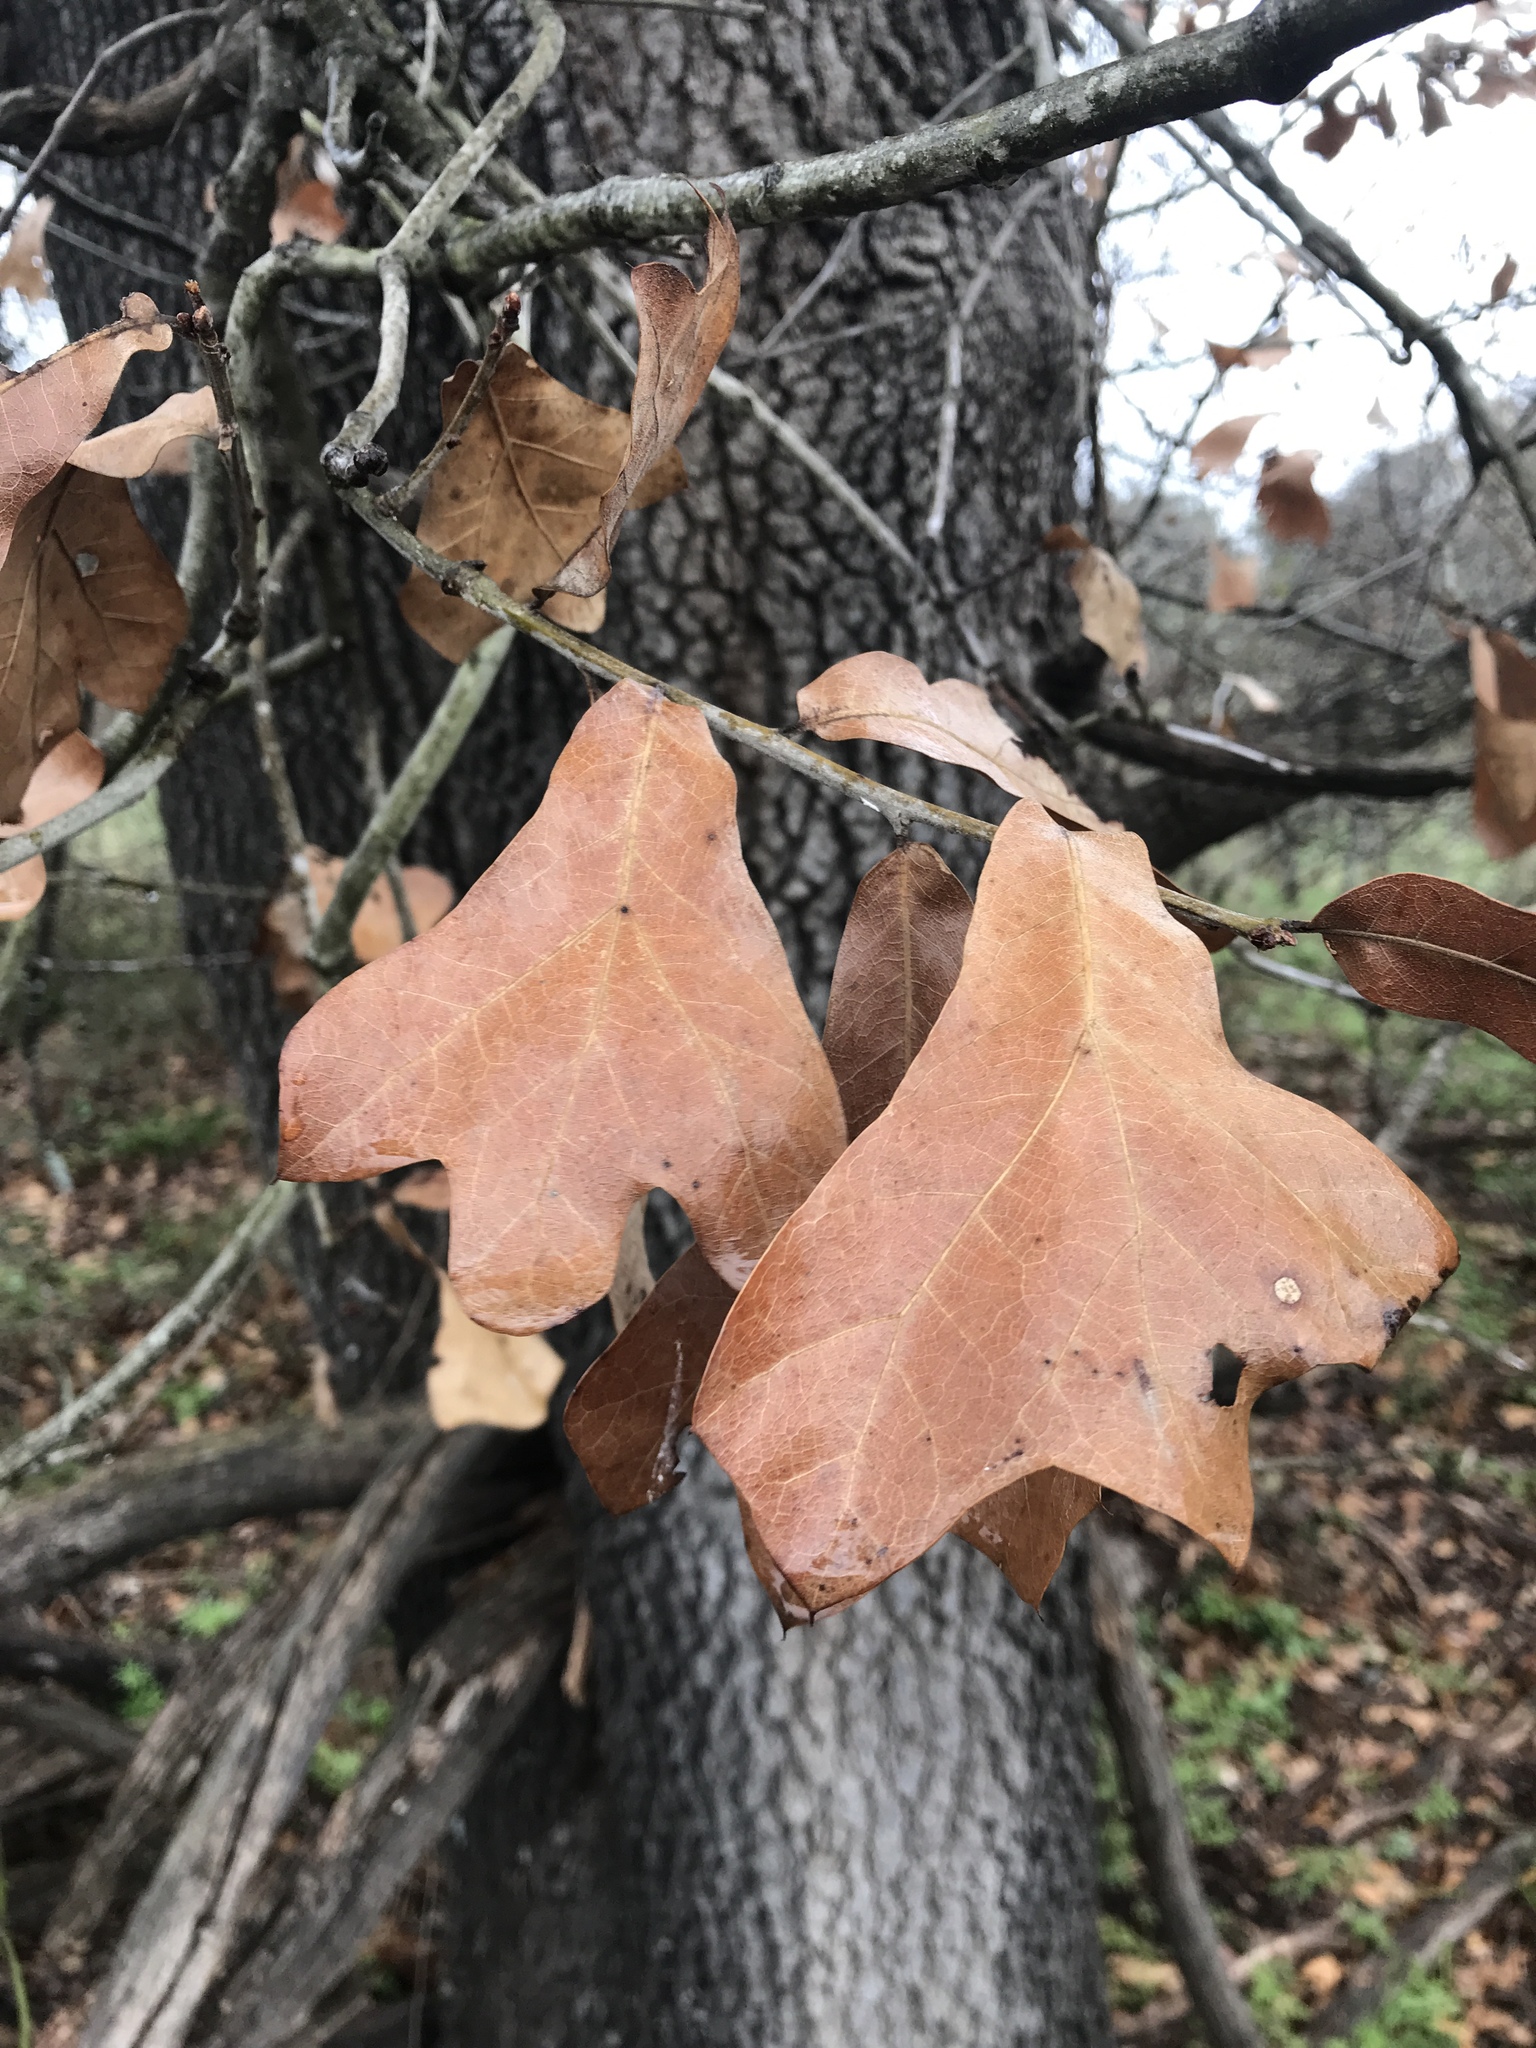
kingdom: Plantae
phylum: Tracheophyta
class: Magnoliopsida
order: Fagales
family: Fagaceae
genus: Quercus
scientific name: Quercus marilandica
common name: Blackjack oak
